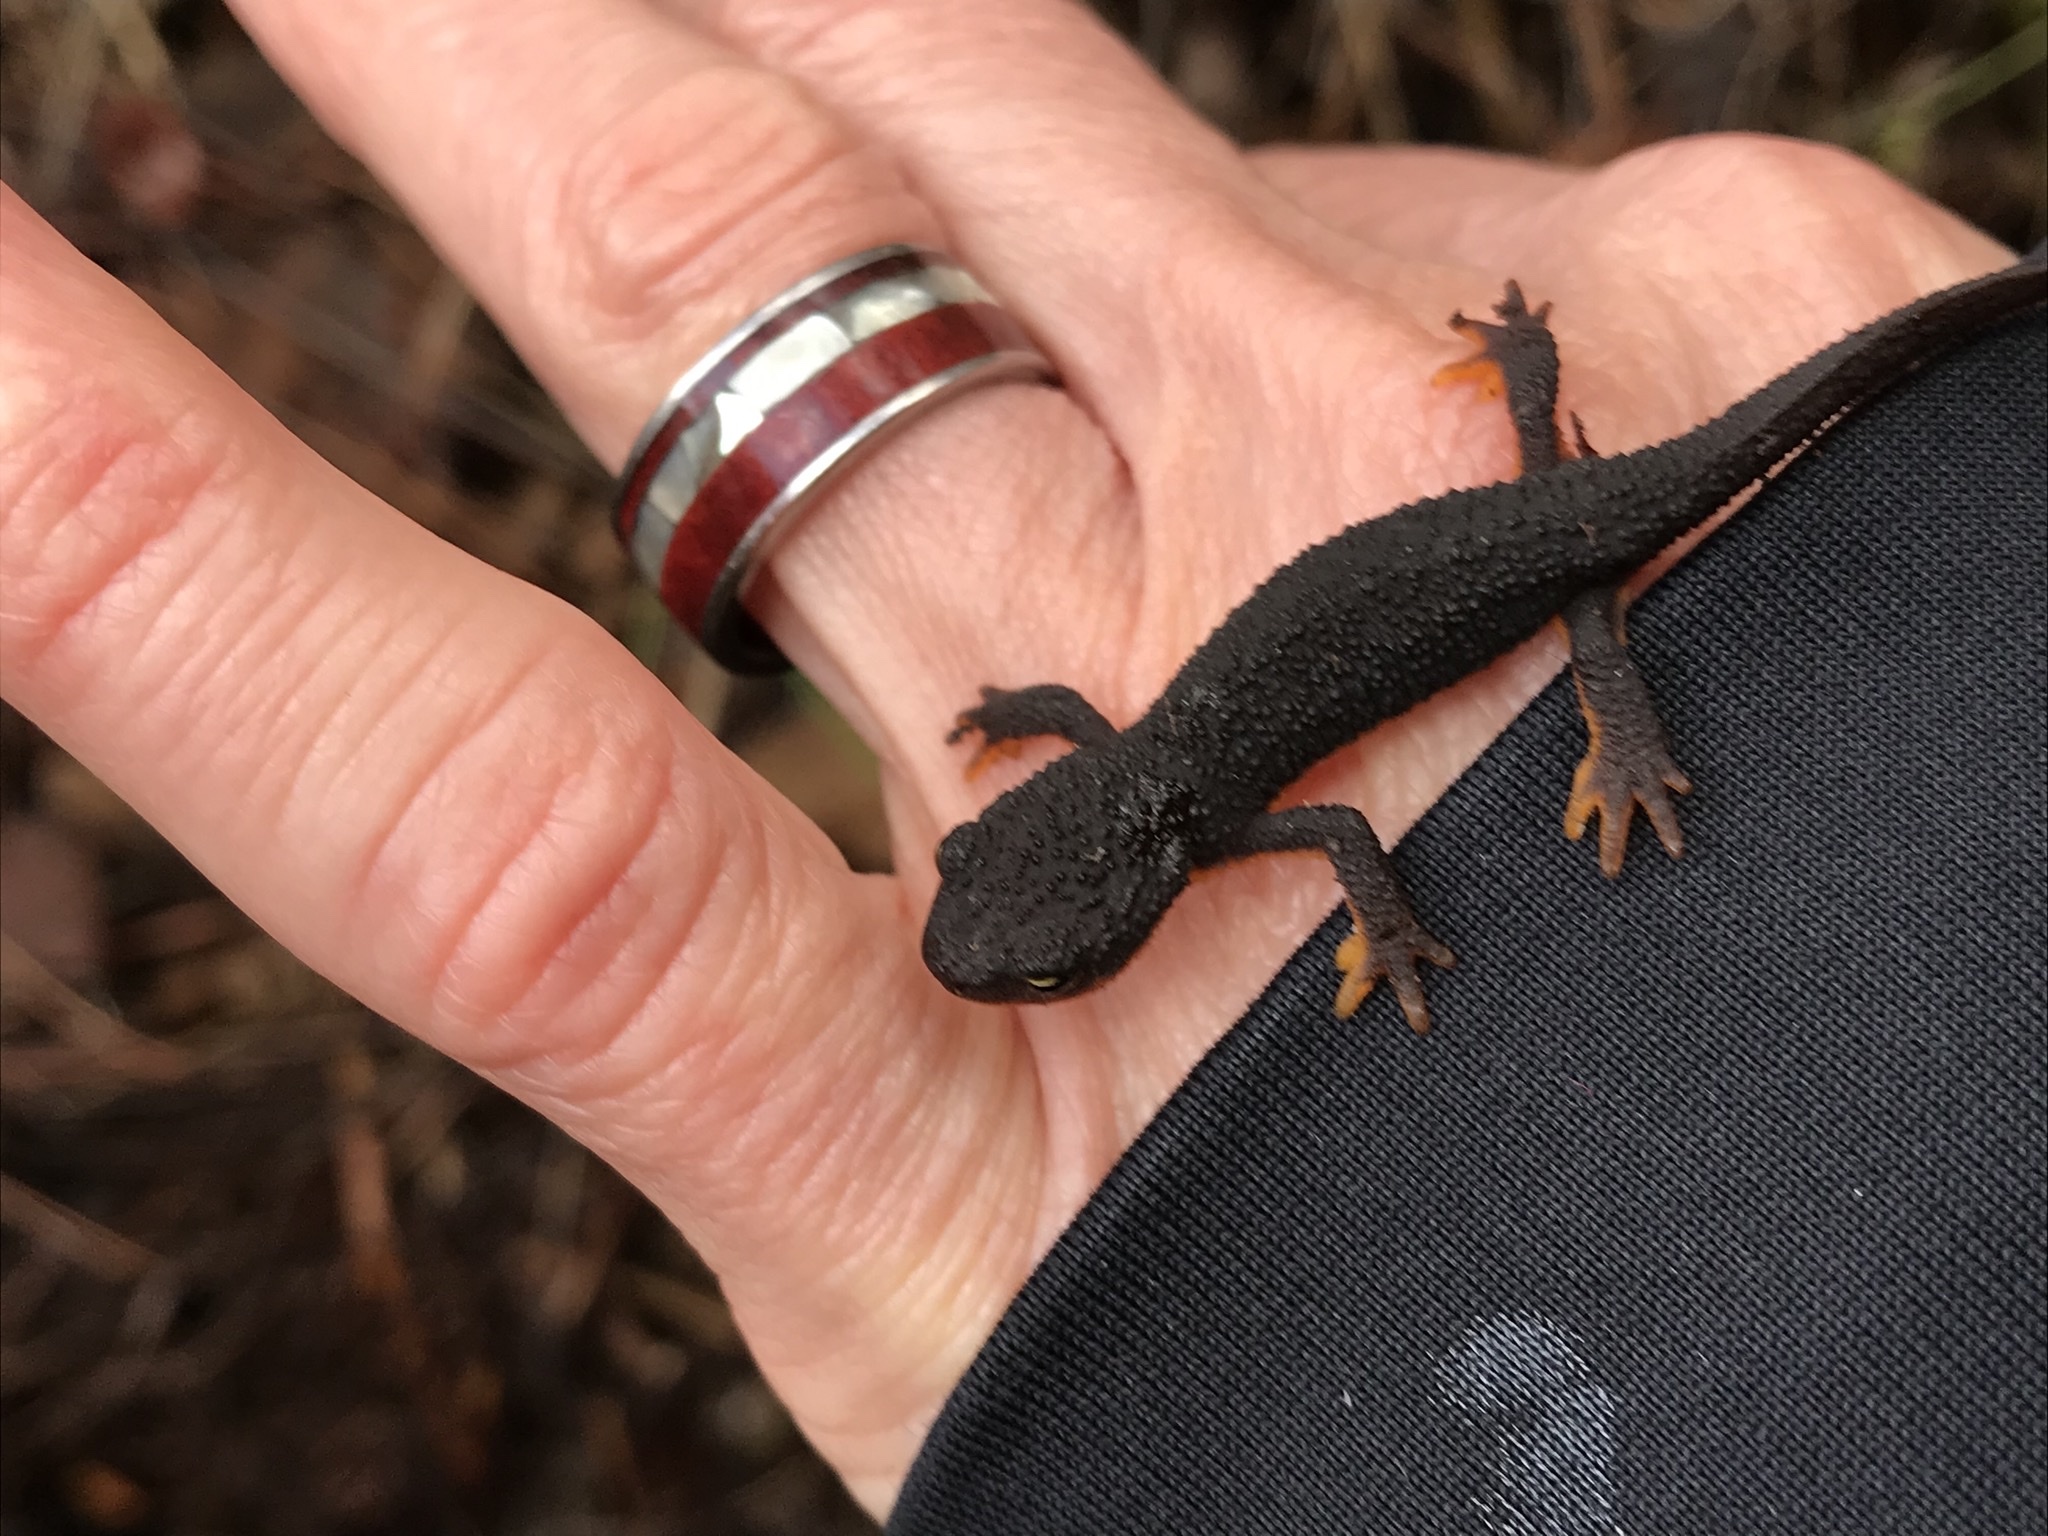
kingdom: Animalia
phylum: Chordata
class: Amphibia
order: Caudata
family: Salamandridae
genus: Taricha
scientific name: Taricha granulosa
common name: Roughskin newt
